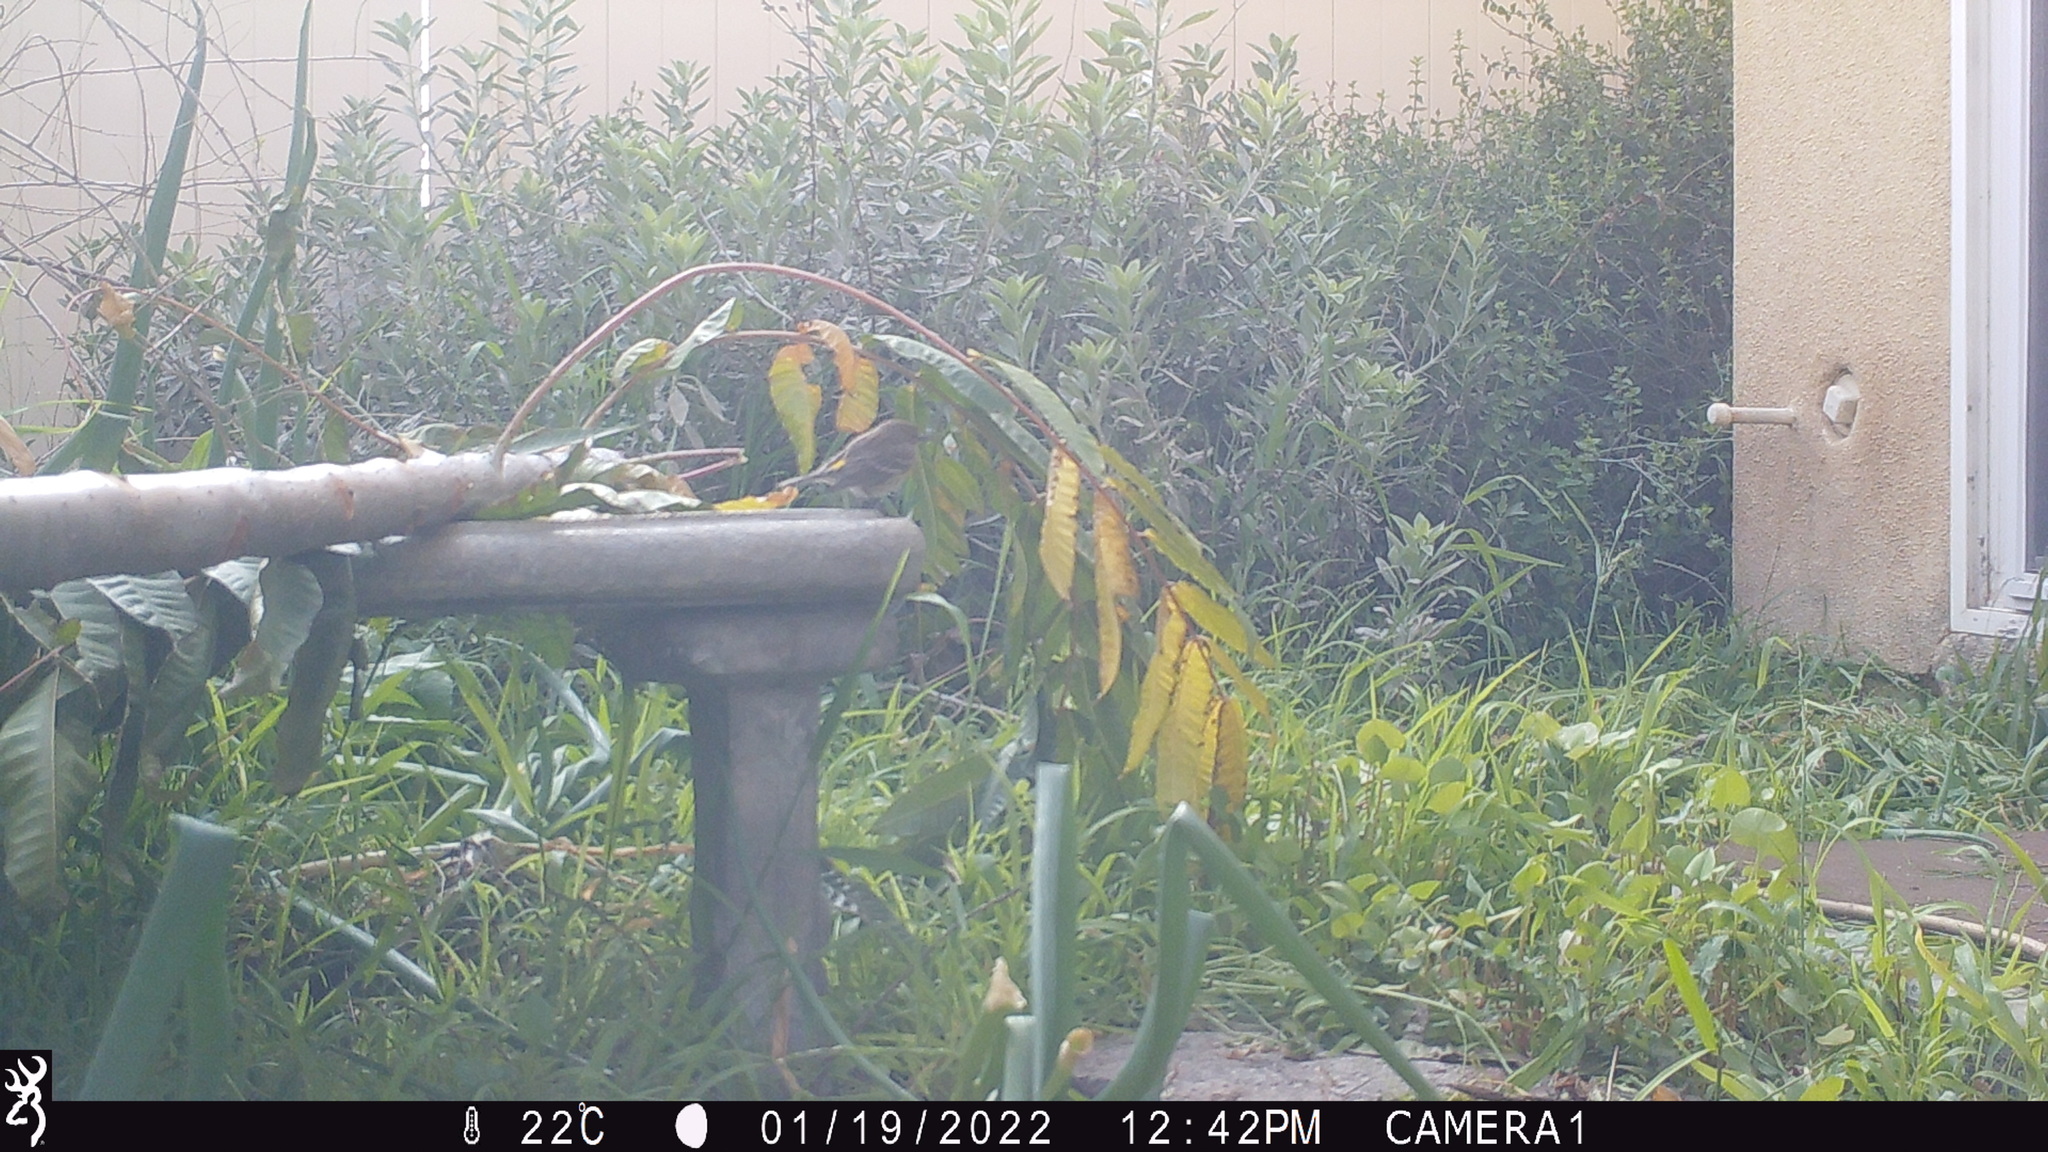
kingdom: Animalia
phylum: Chordata
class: Aves
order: Passeriformes
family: Parulidae
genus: Setophaga
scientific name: Setophaga coronata
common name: Myrtle warbler
